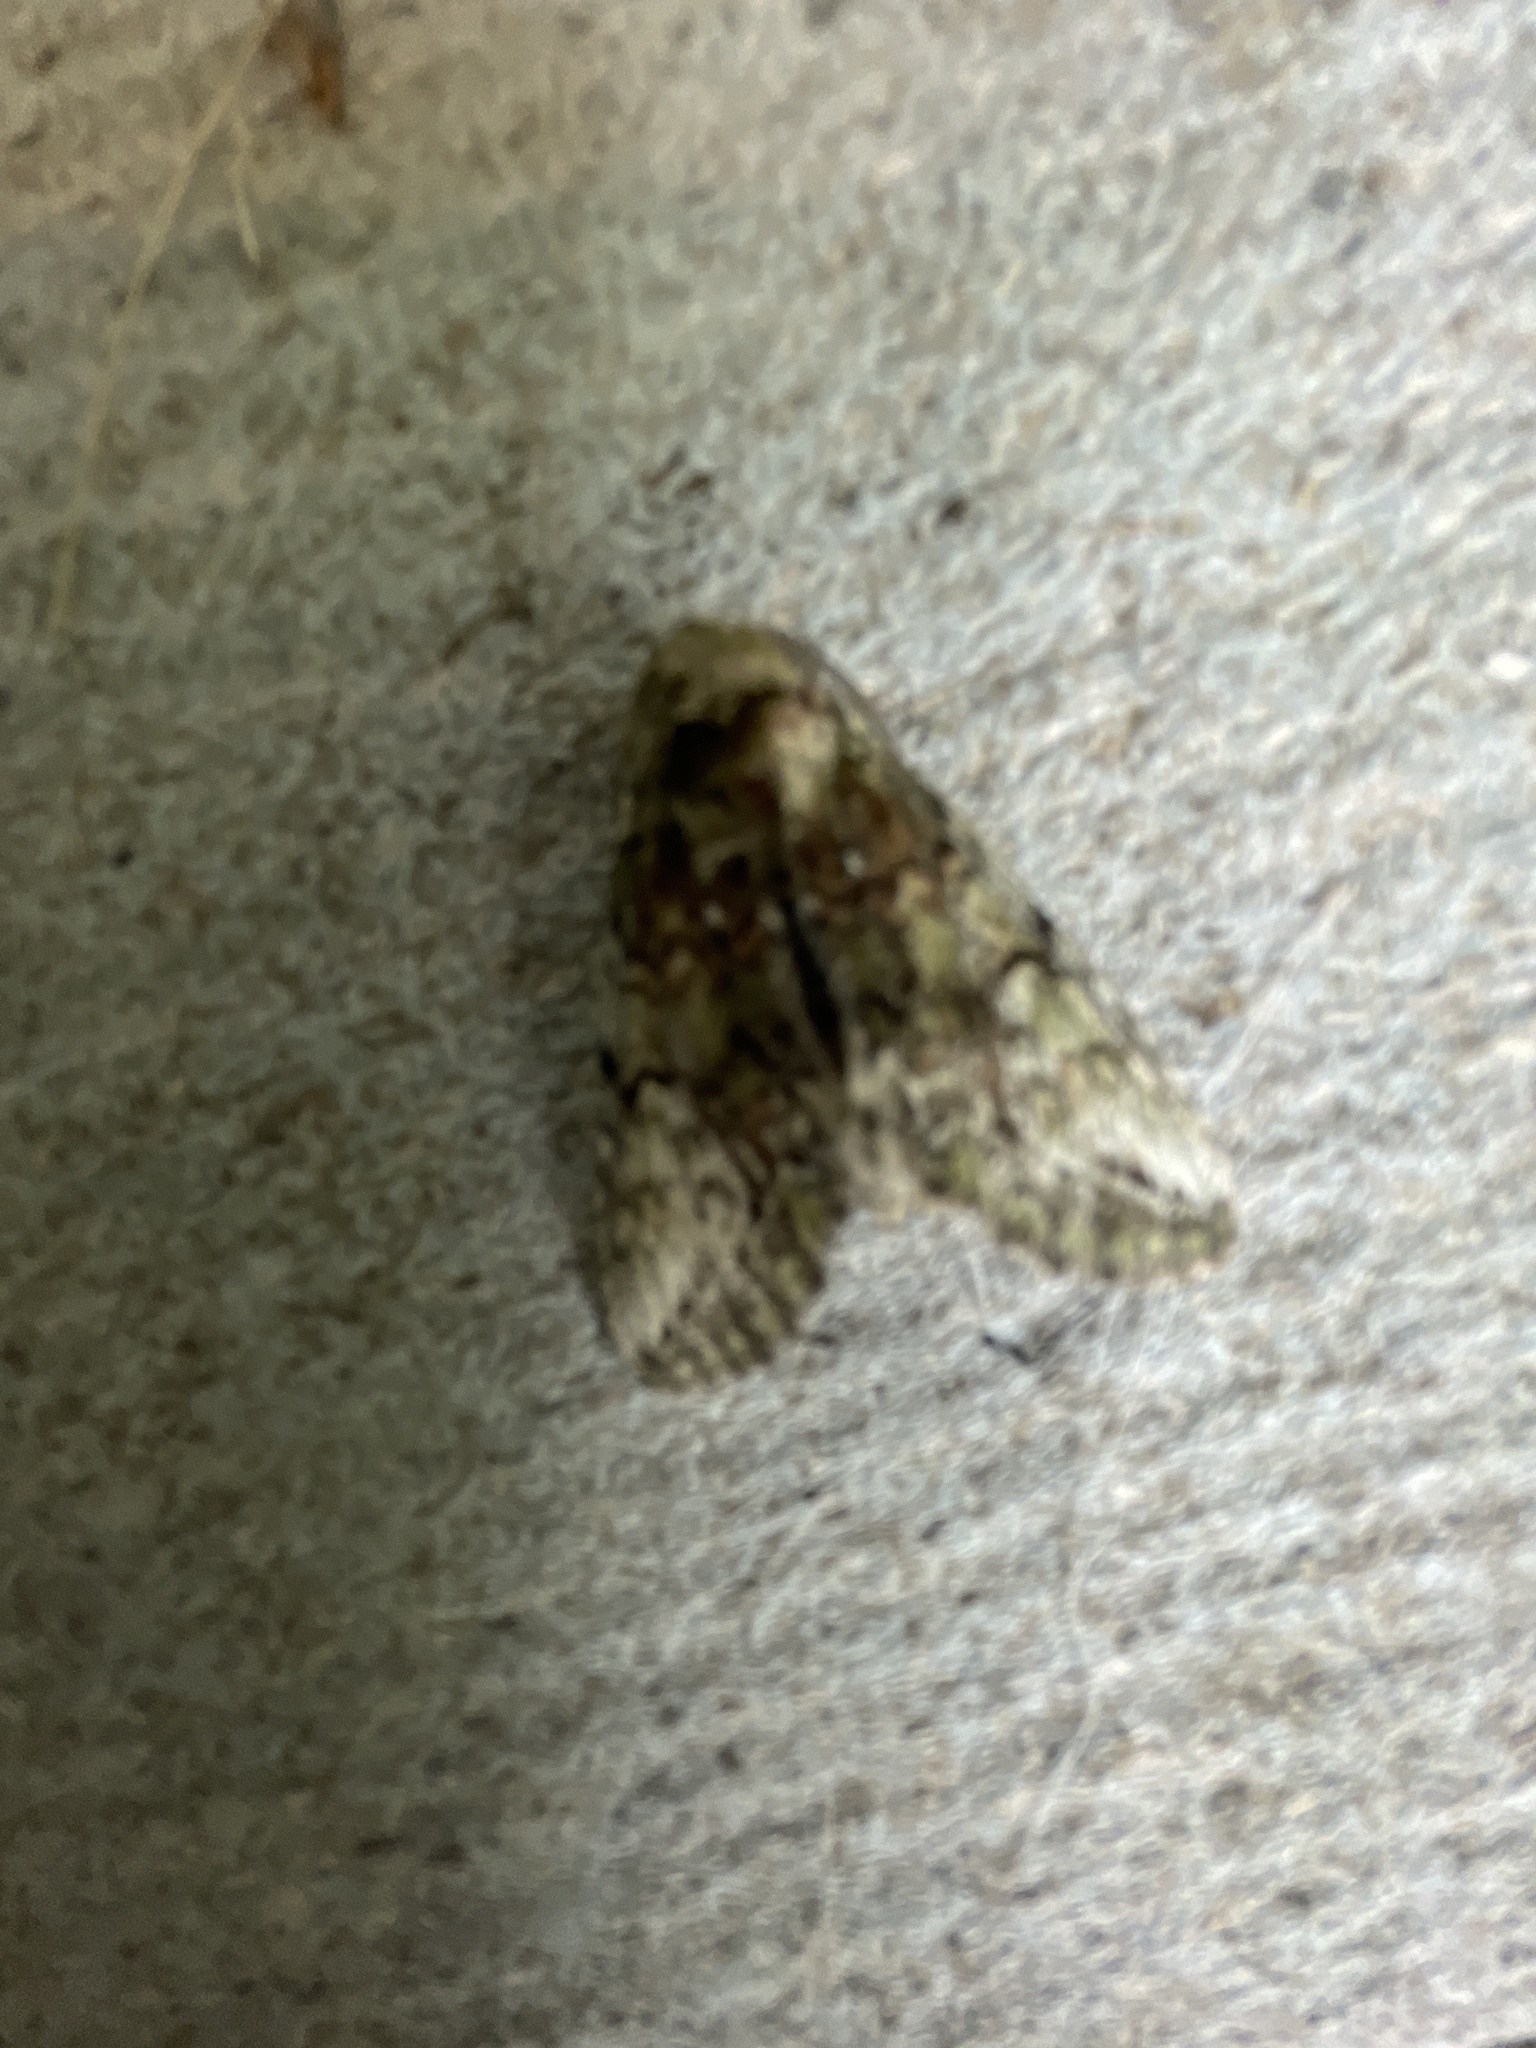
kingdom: Animalia
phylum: Arthropoda
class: Insecta
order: Lepidoptera
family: Notodontidae
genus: Heterocampa
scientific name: Heterocampa
